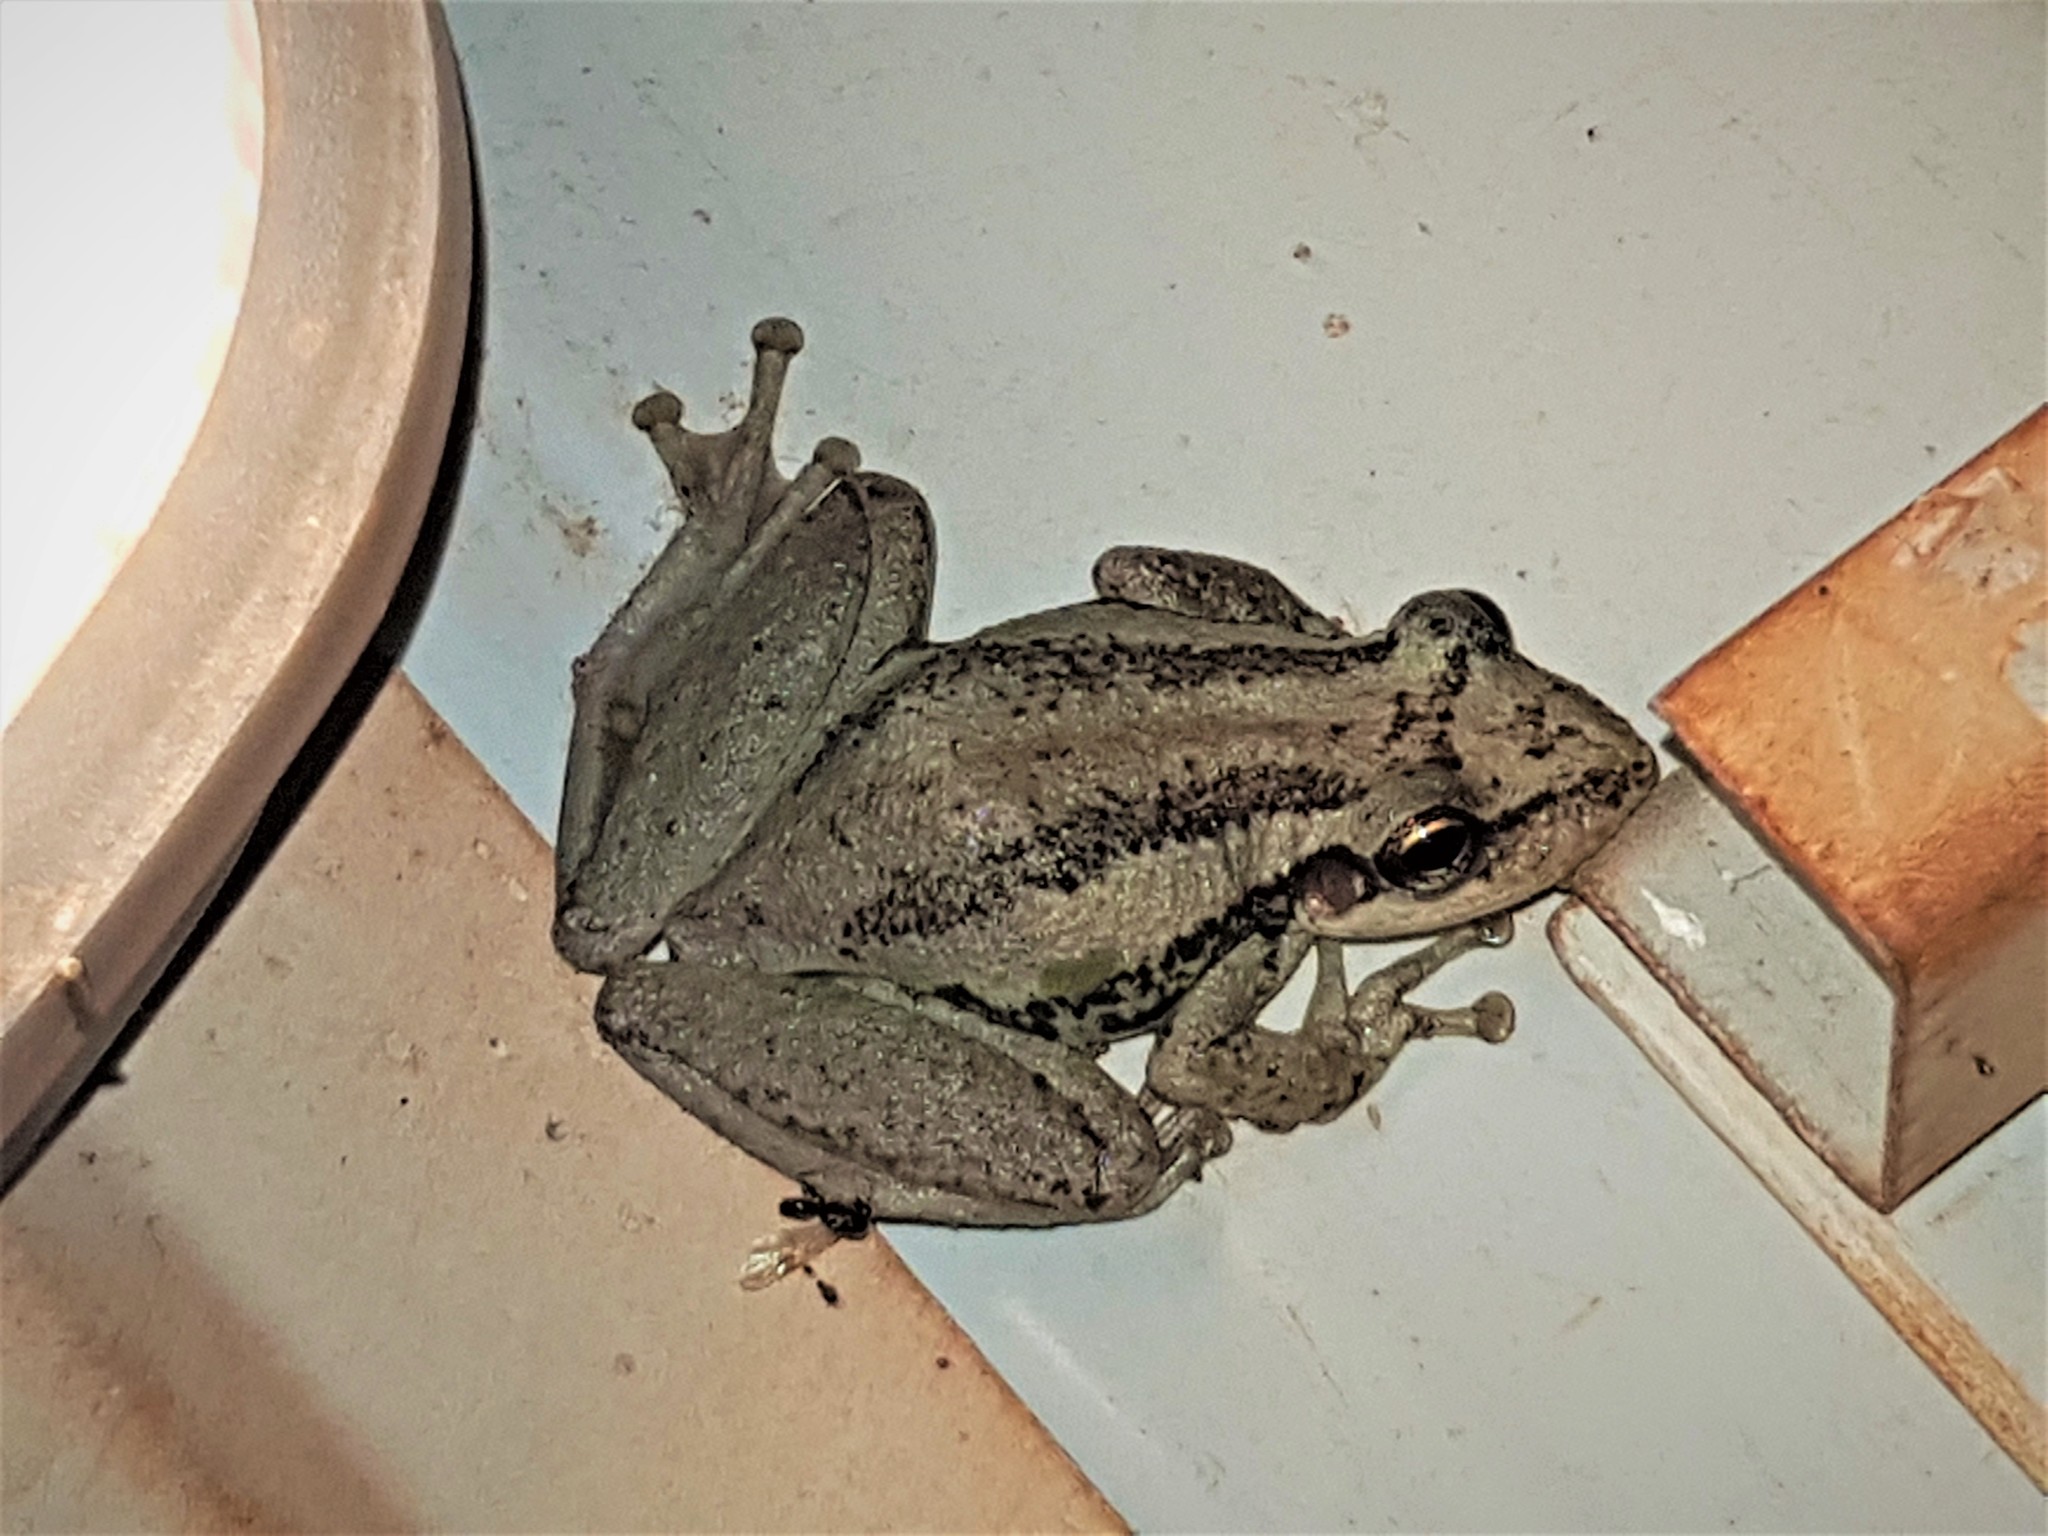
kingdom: Animalia
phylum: Chordata
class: Amphibia
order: Anura
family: Hylidae
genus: Scinax
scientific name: Scinax ruber
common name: Red snouted treefrog
